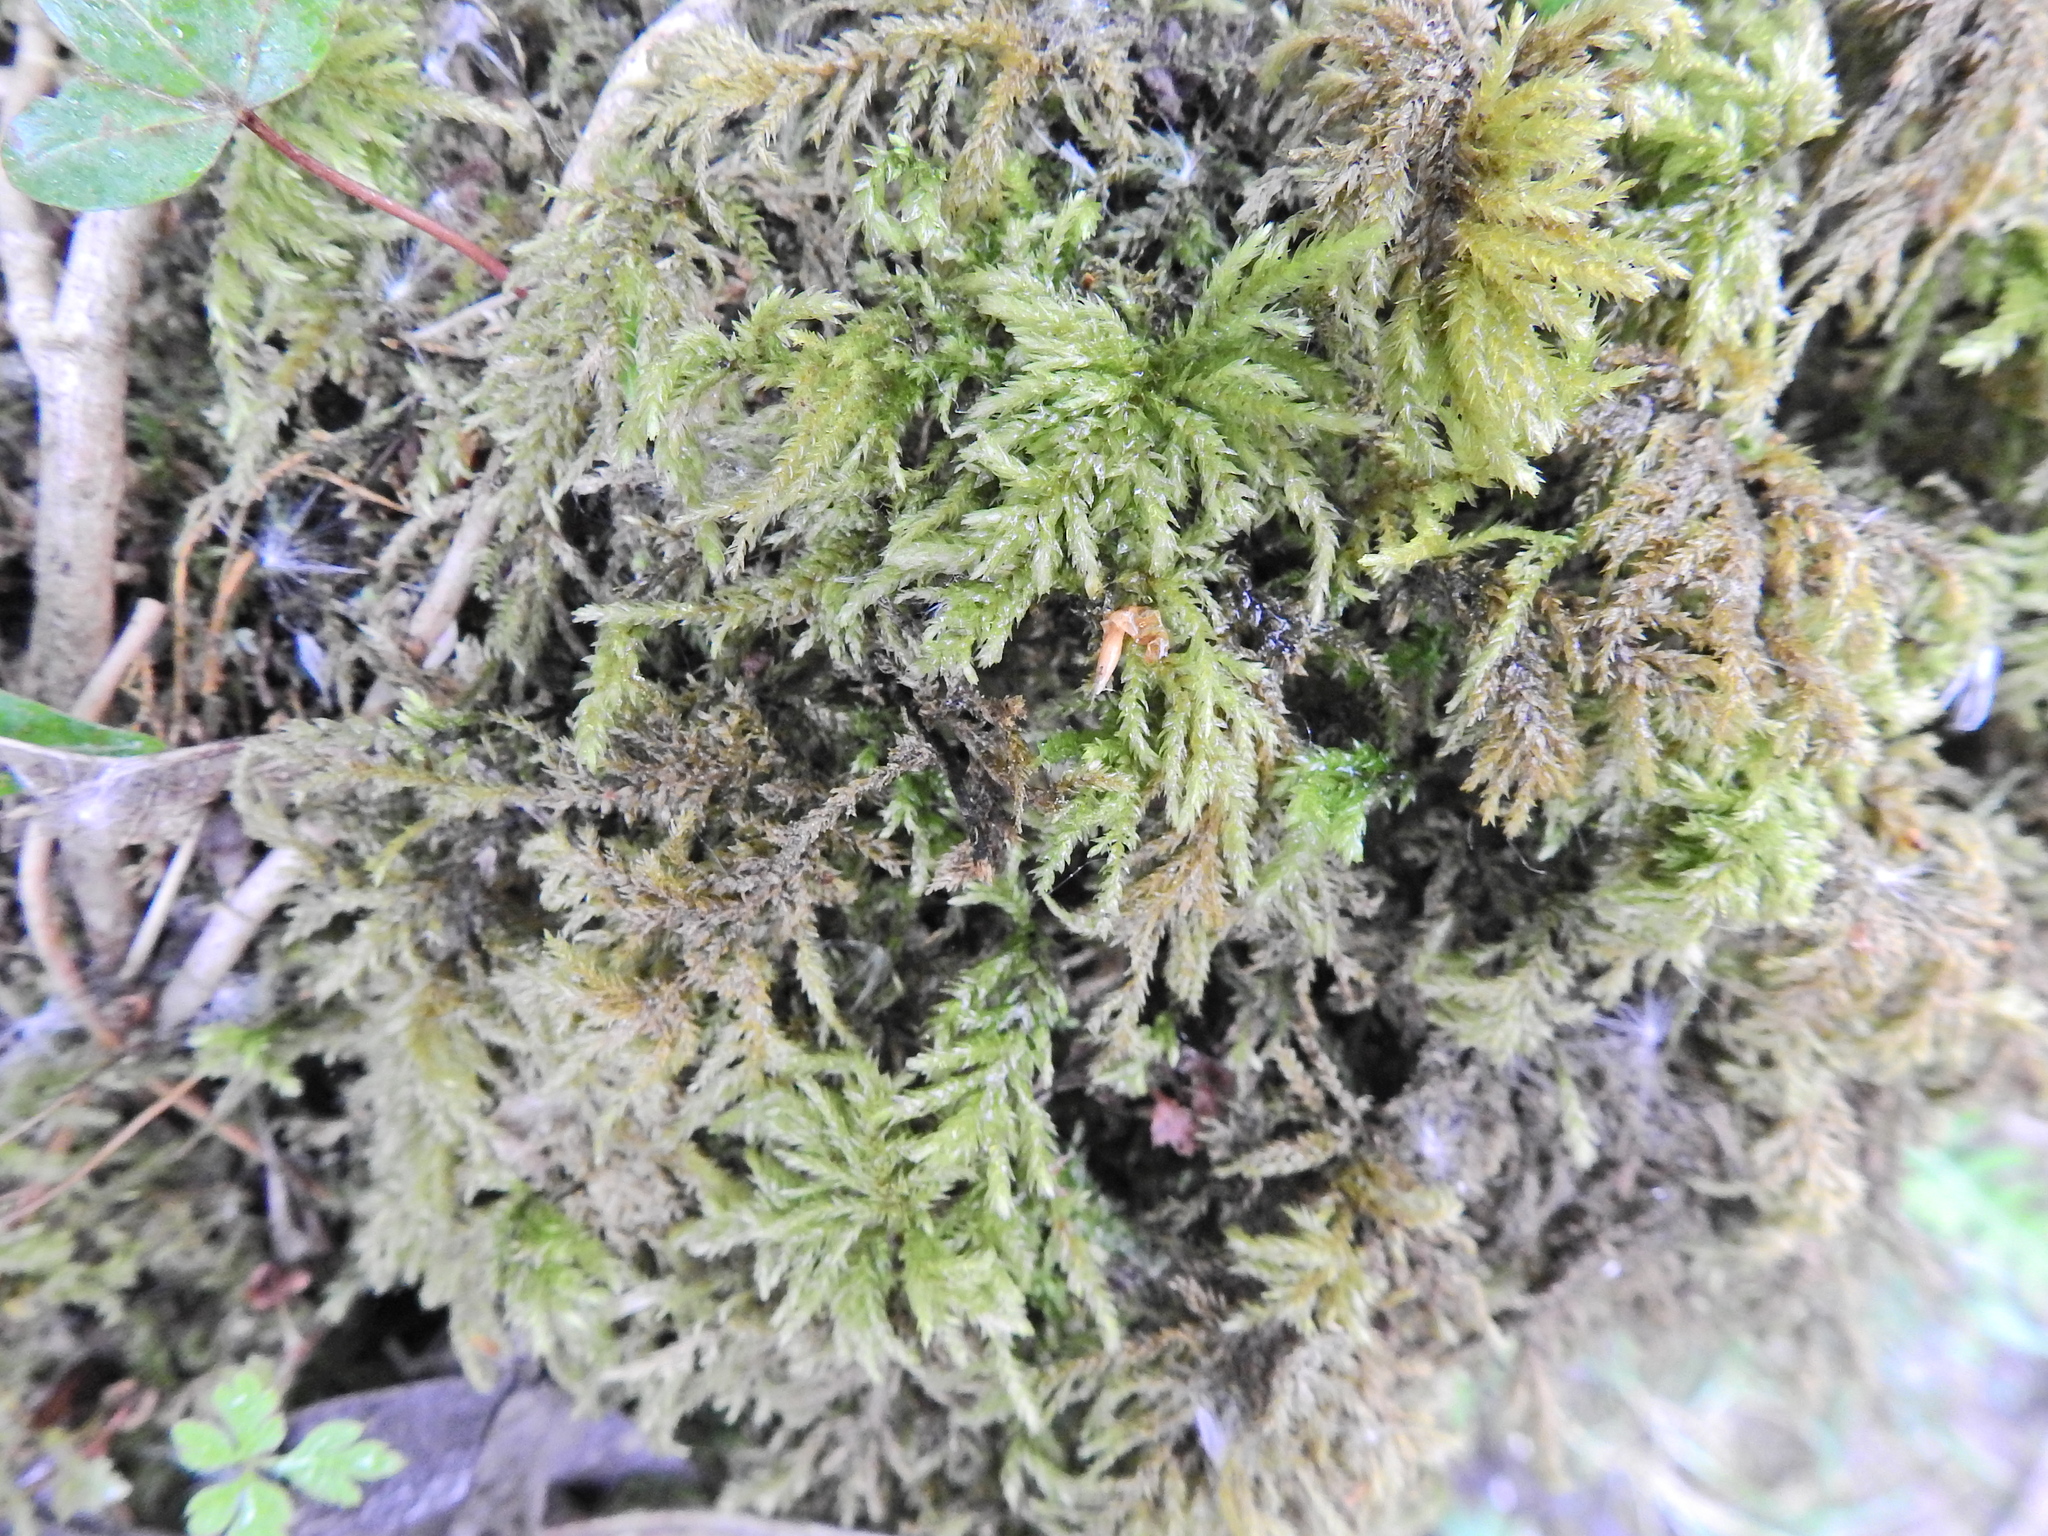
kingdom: Plantae
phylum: Bryophyta
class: Bryopsida
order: Hypnales
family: Neckeraceae
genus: Thamnobryum
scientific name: Thamnobryum alopecurum
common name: Fox-tail feather-moss
